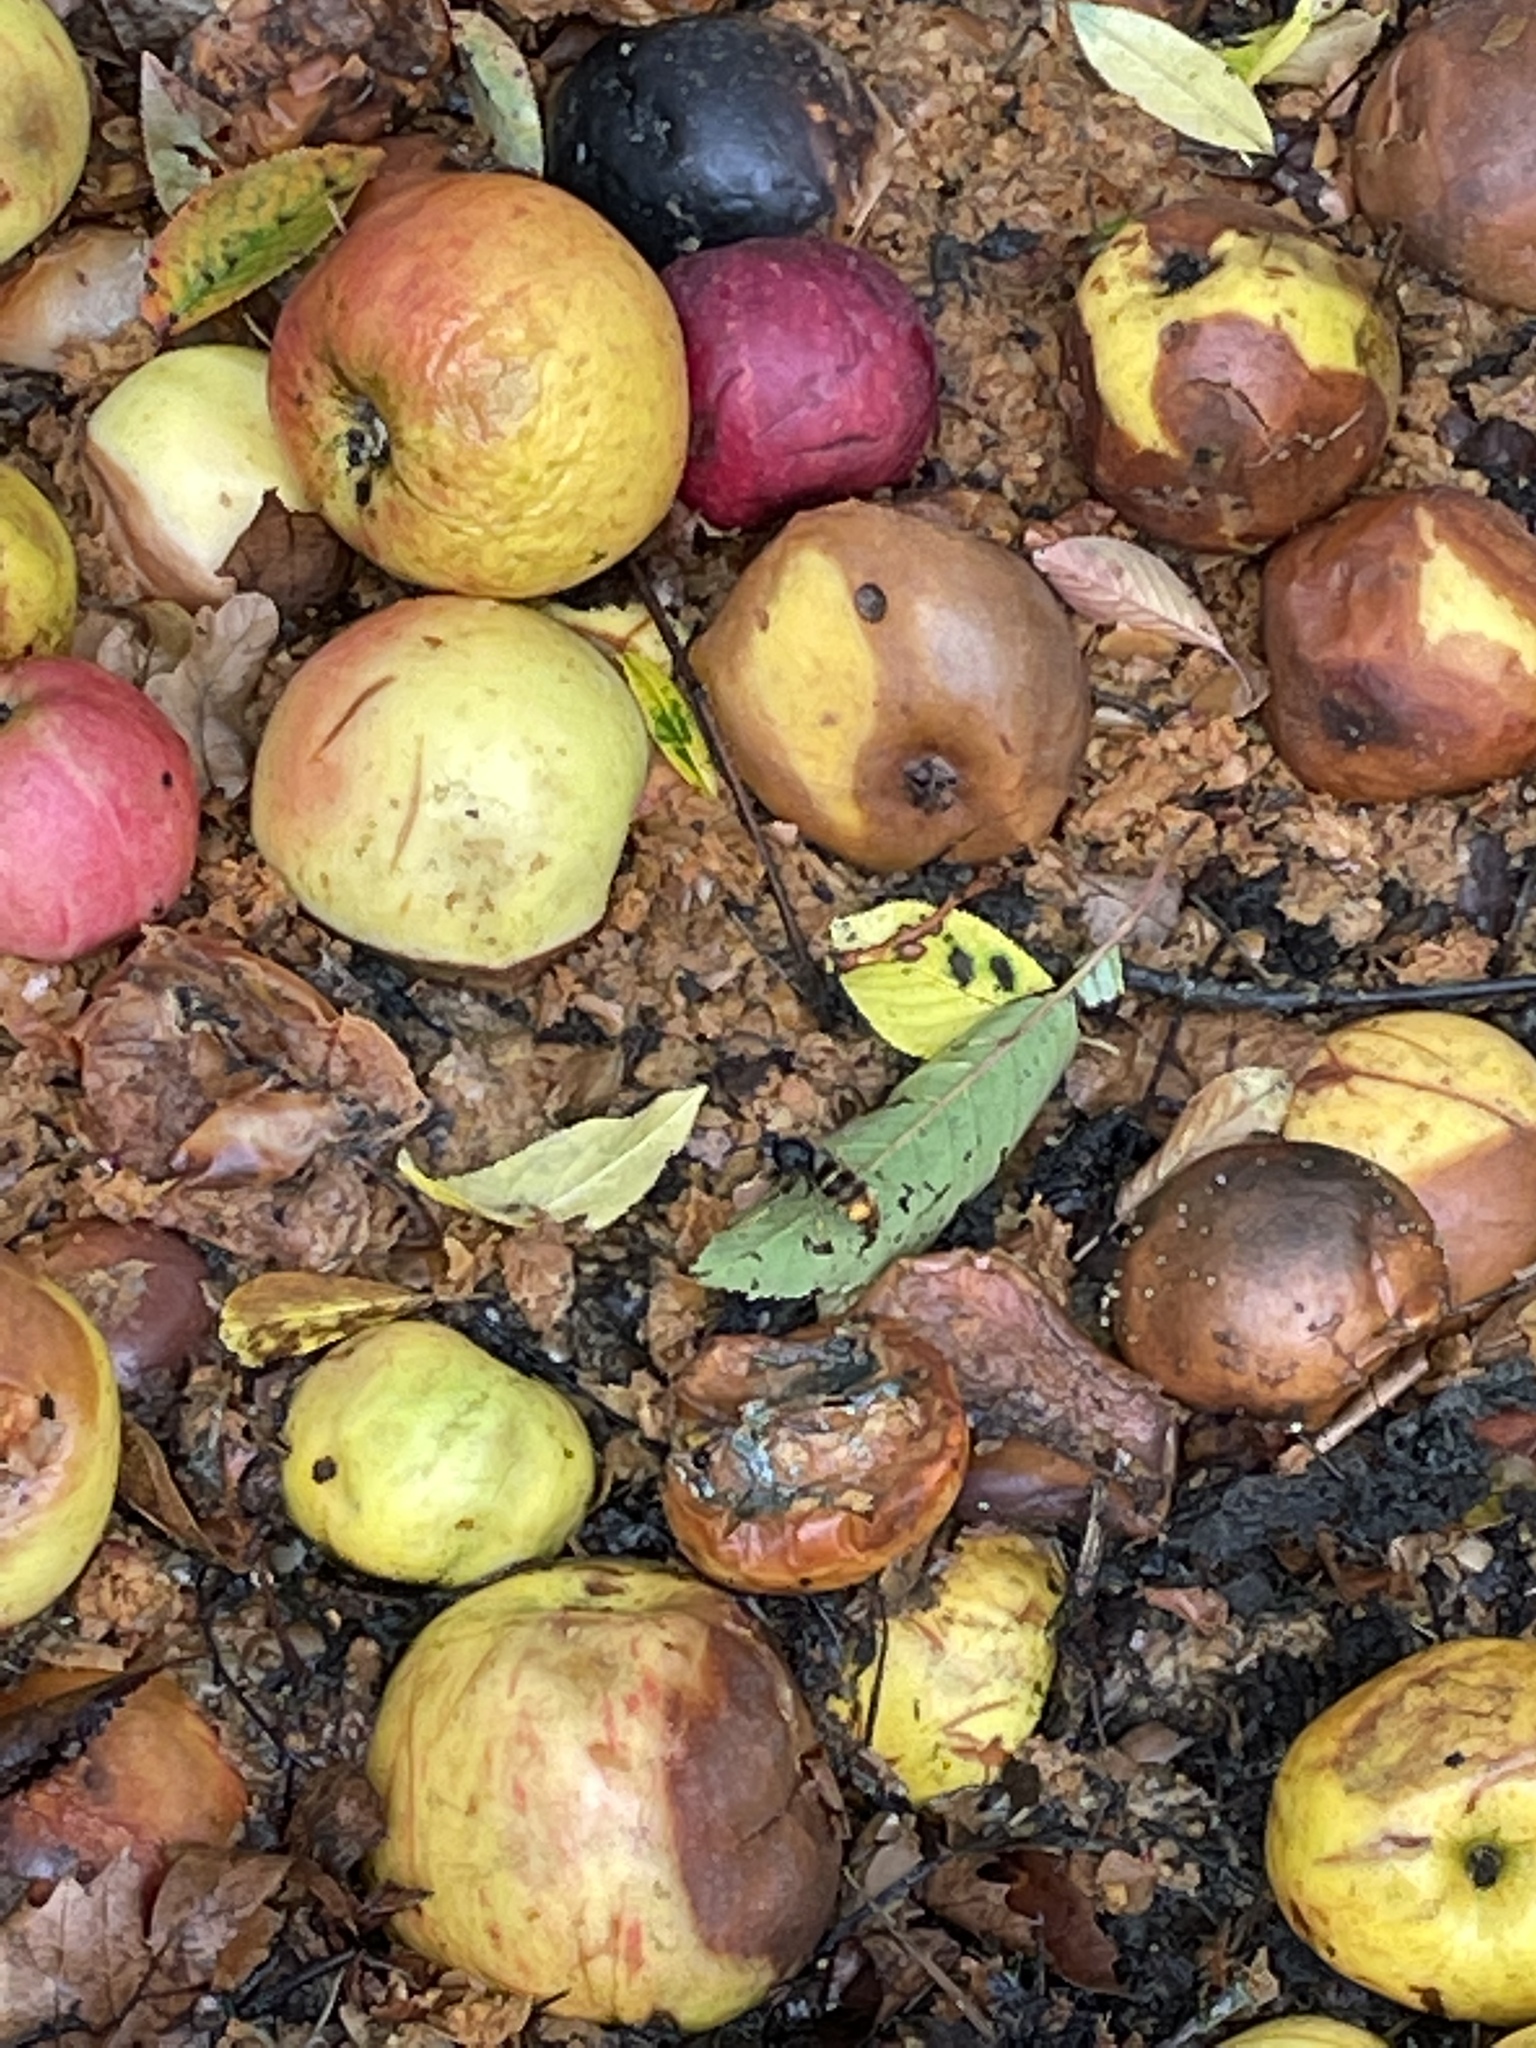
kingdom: Animalia
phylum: Arthropoda
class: Insecta
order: Hymenoptera
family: Vespidae
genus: Vespa
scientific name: Vespa velutina
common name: Asian hornet
